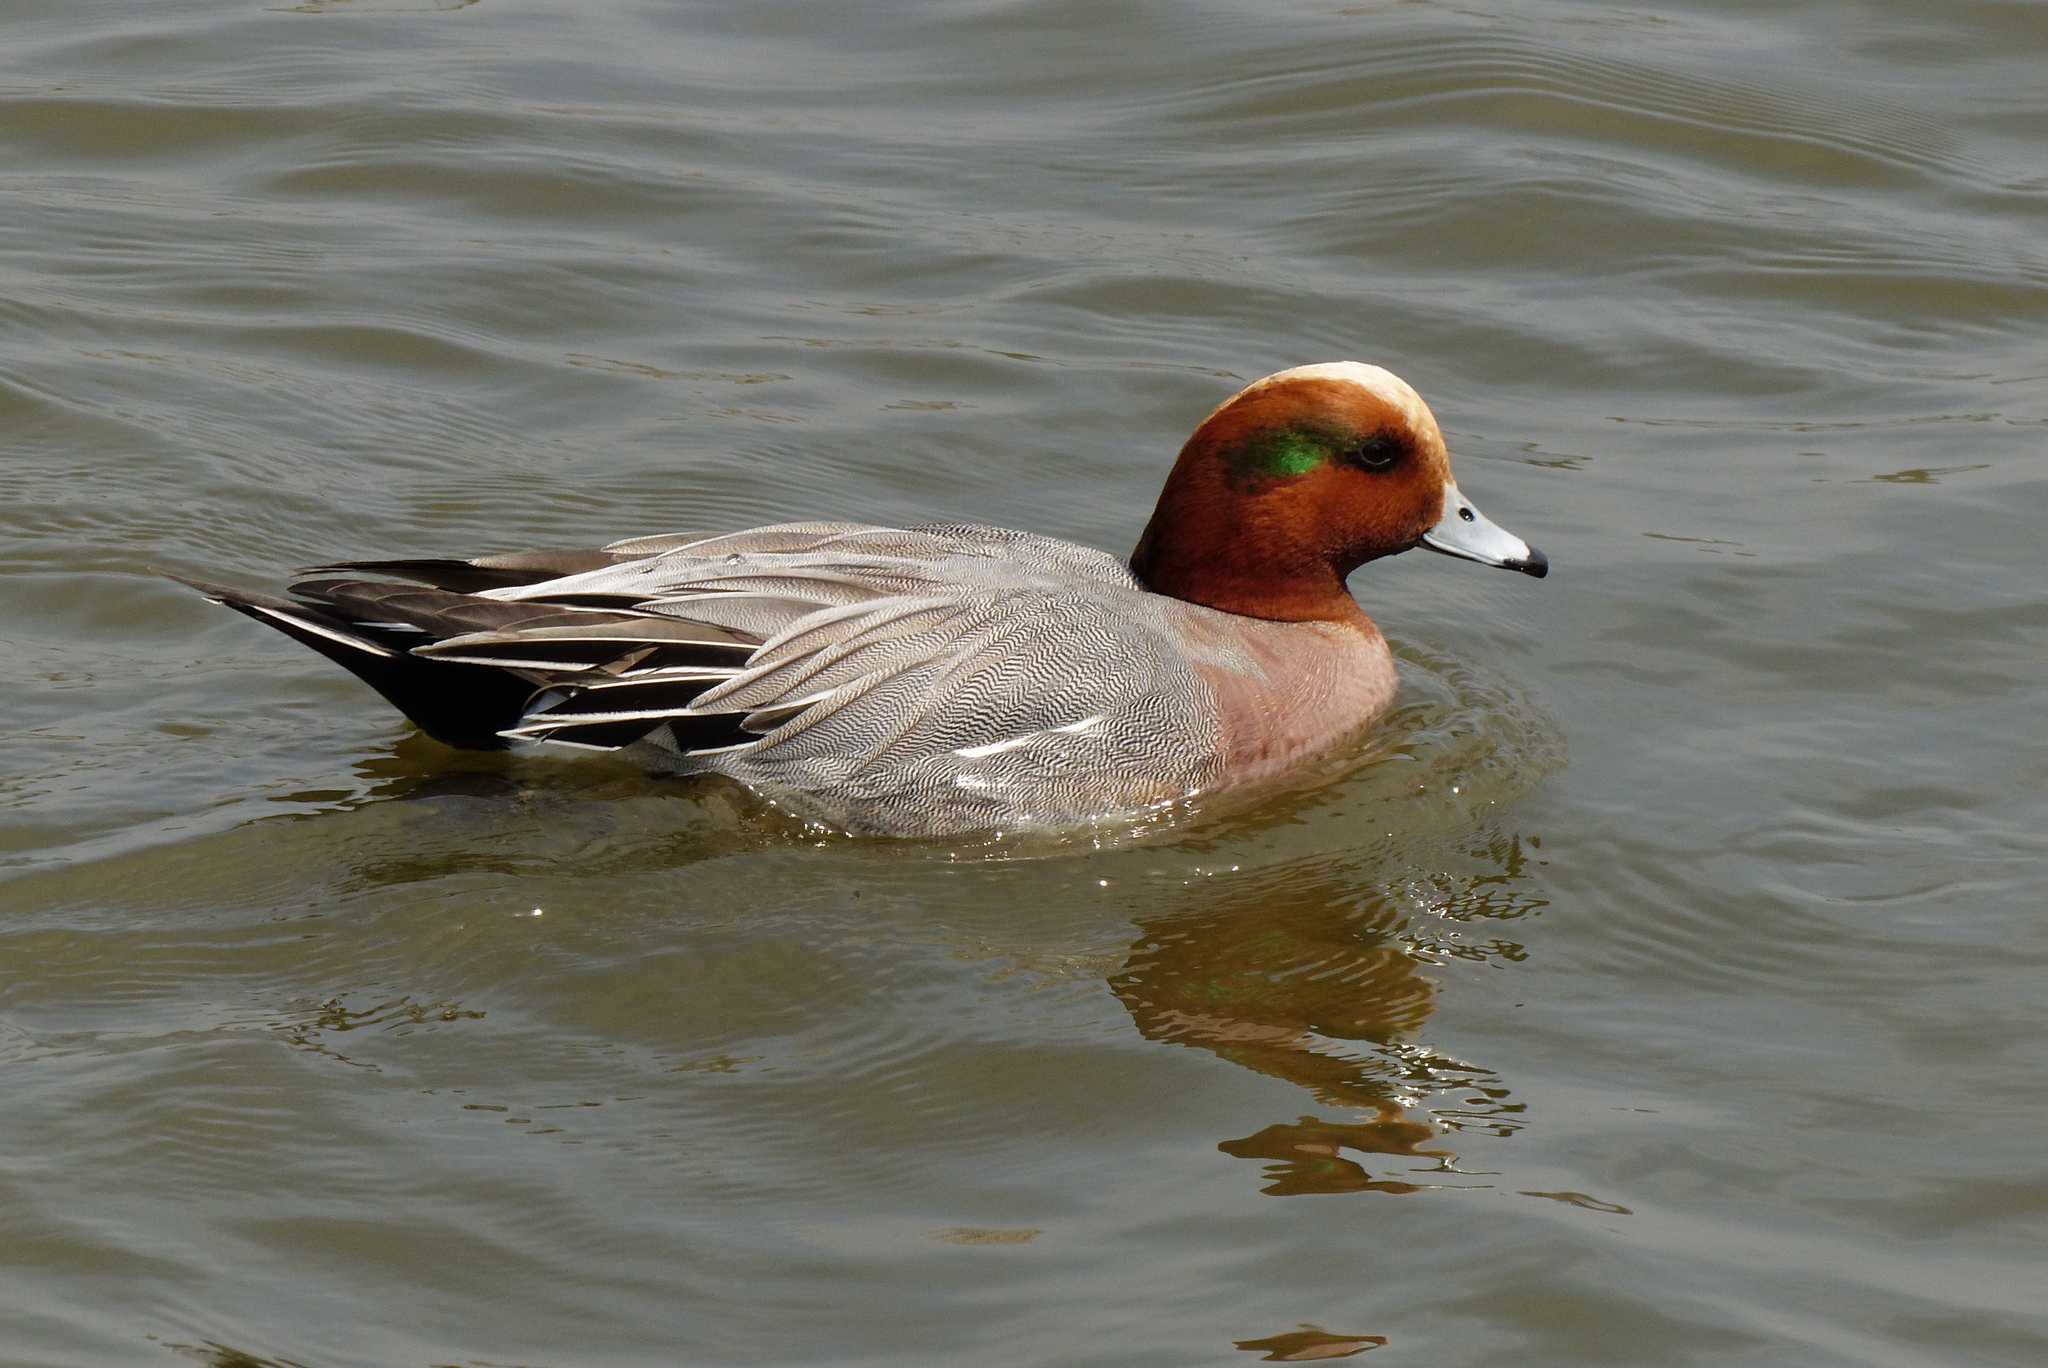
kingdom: Animalia
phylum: Chordata
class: Aves
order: Anseriformes
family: Anatidae
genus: Mareca
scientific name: Mareca penelope
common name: Eurasian wigeon
